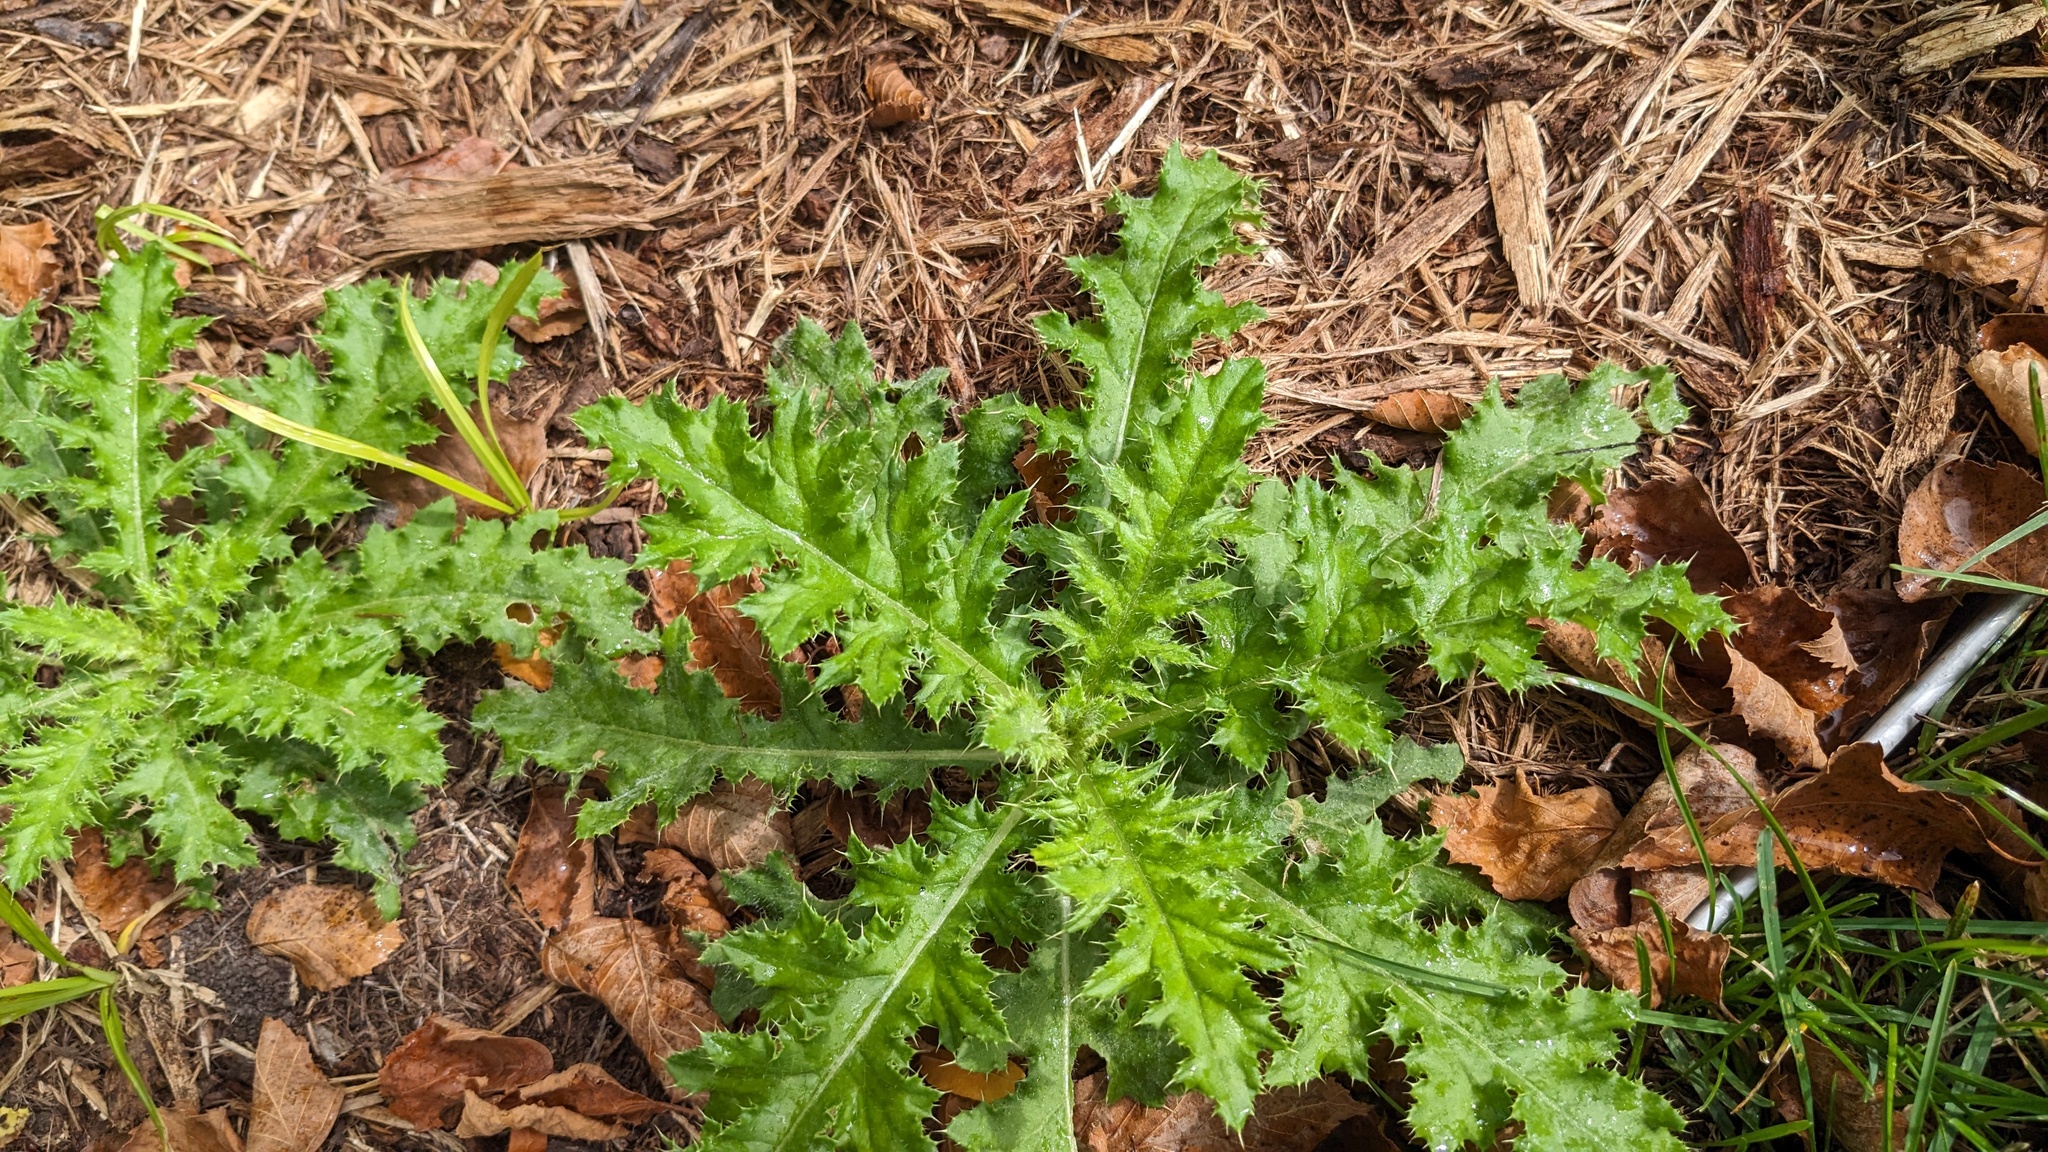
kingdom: Plantae
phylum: Tracheophyta
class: Magnoliopsida
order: Asterales
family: Asteraceae
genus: Cirsium
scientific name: Cirsium arvense
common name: Creeping thistle
